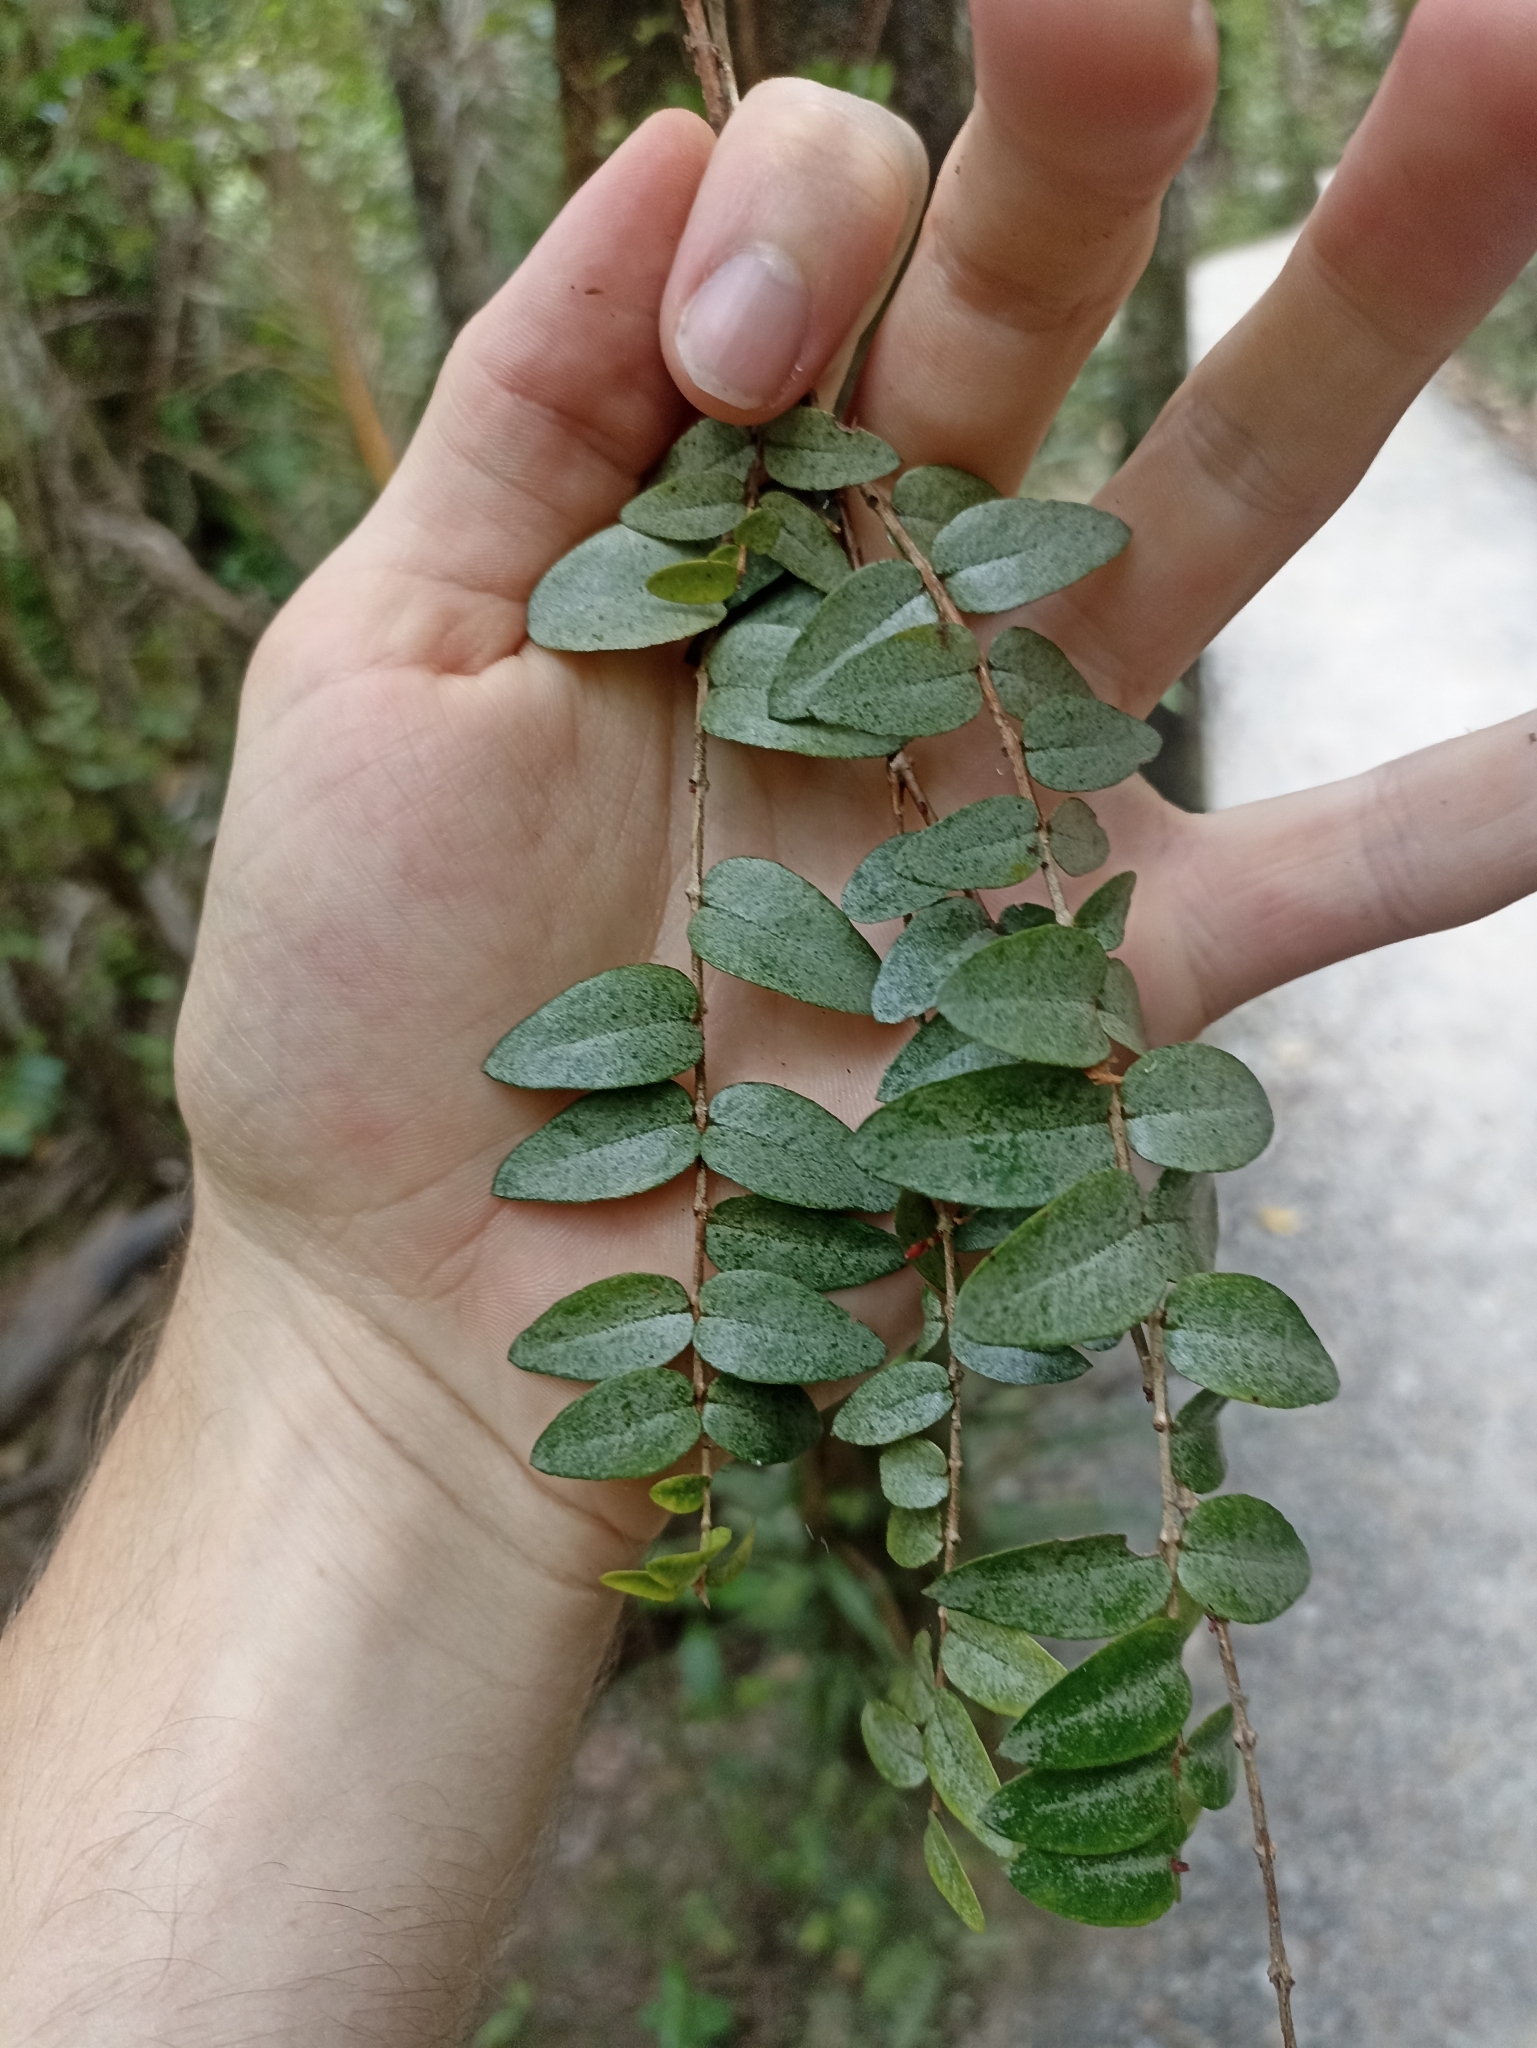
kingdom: Plantae
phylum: Tracheophyta
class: Magnoliopsida
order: Myrtales
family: Myrtaceae
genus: Metrosideros
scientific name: Metrosideros diffusa
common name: Small ratavine
